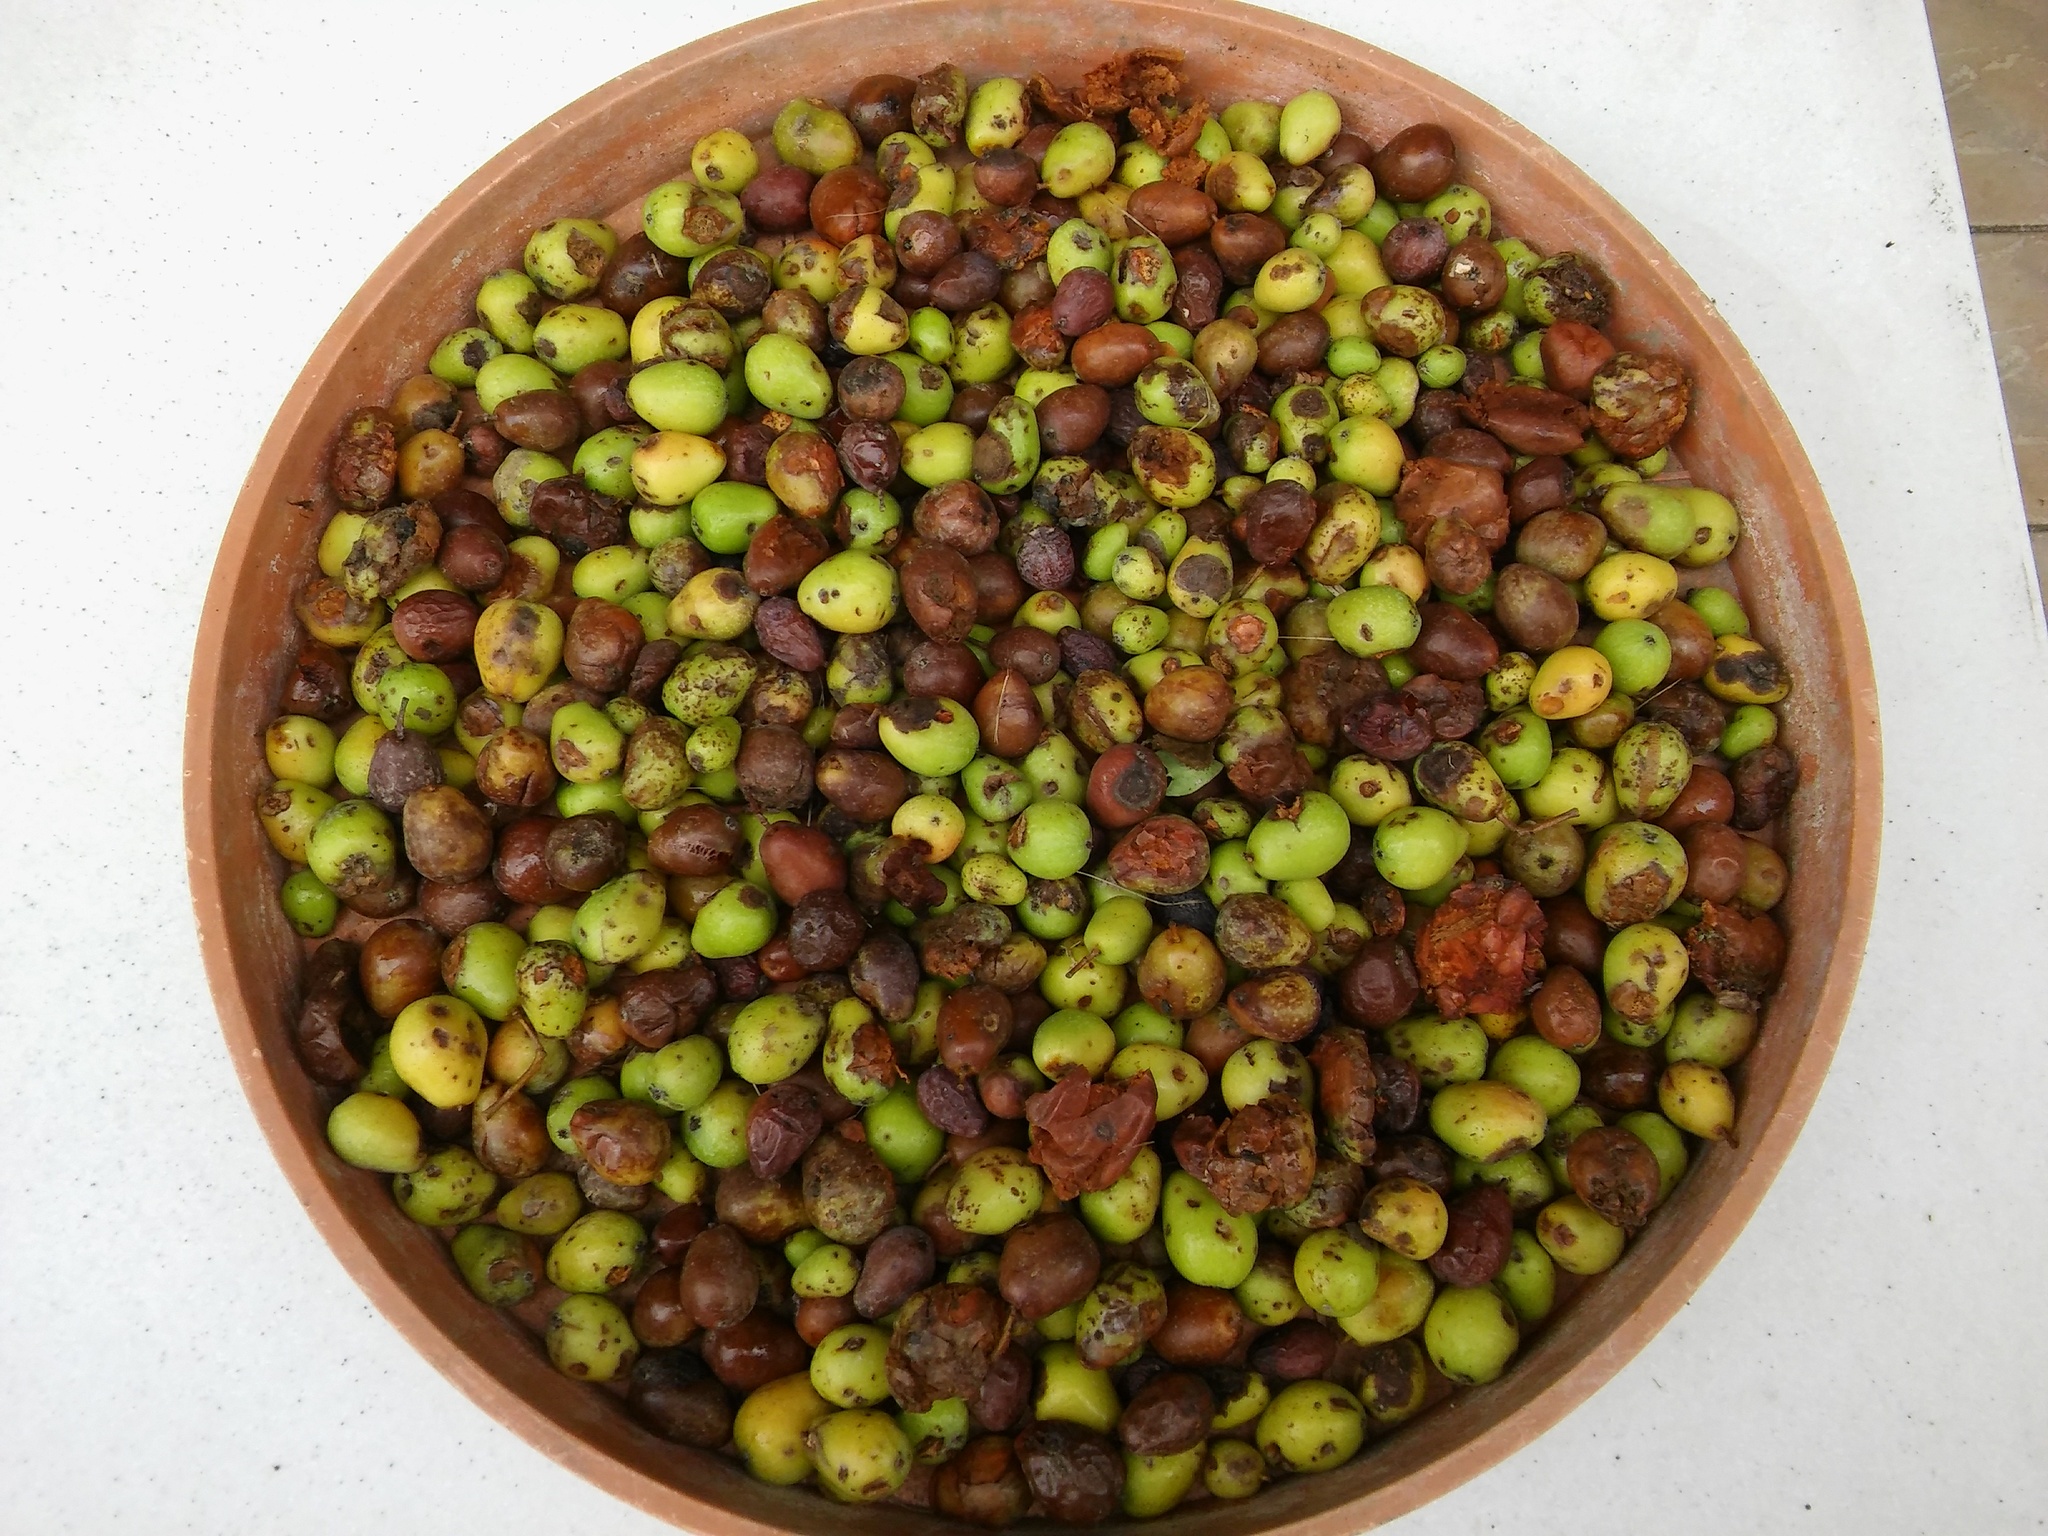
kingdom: Plantae
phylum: Tracheophyta
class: Magnoliopsida
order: Rosales
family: Rosaceae
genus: Cormus
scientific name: Cormus domestica
